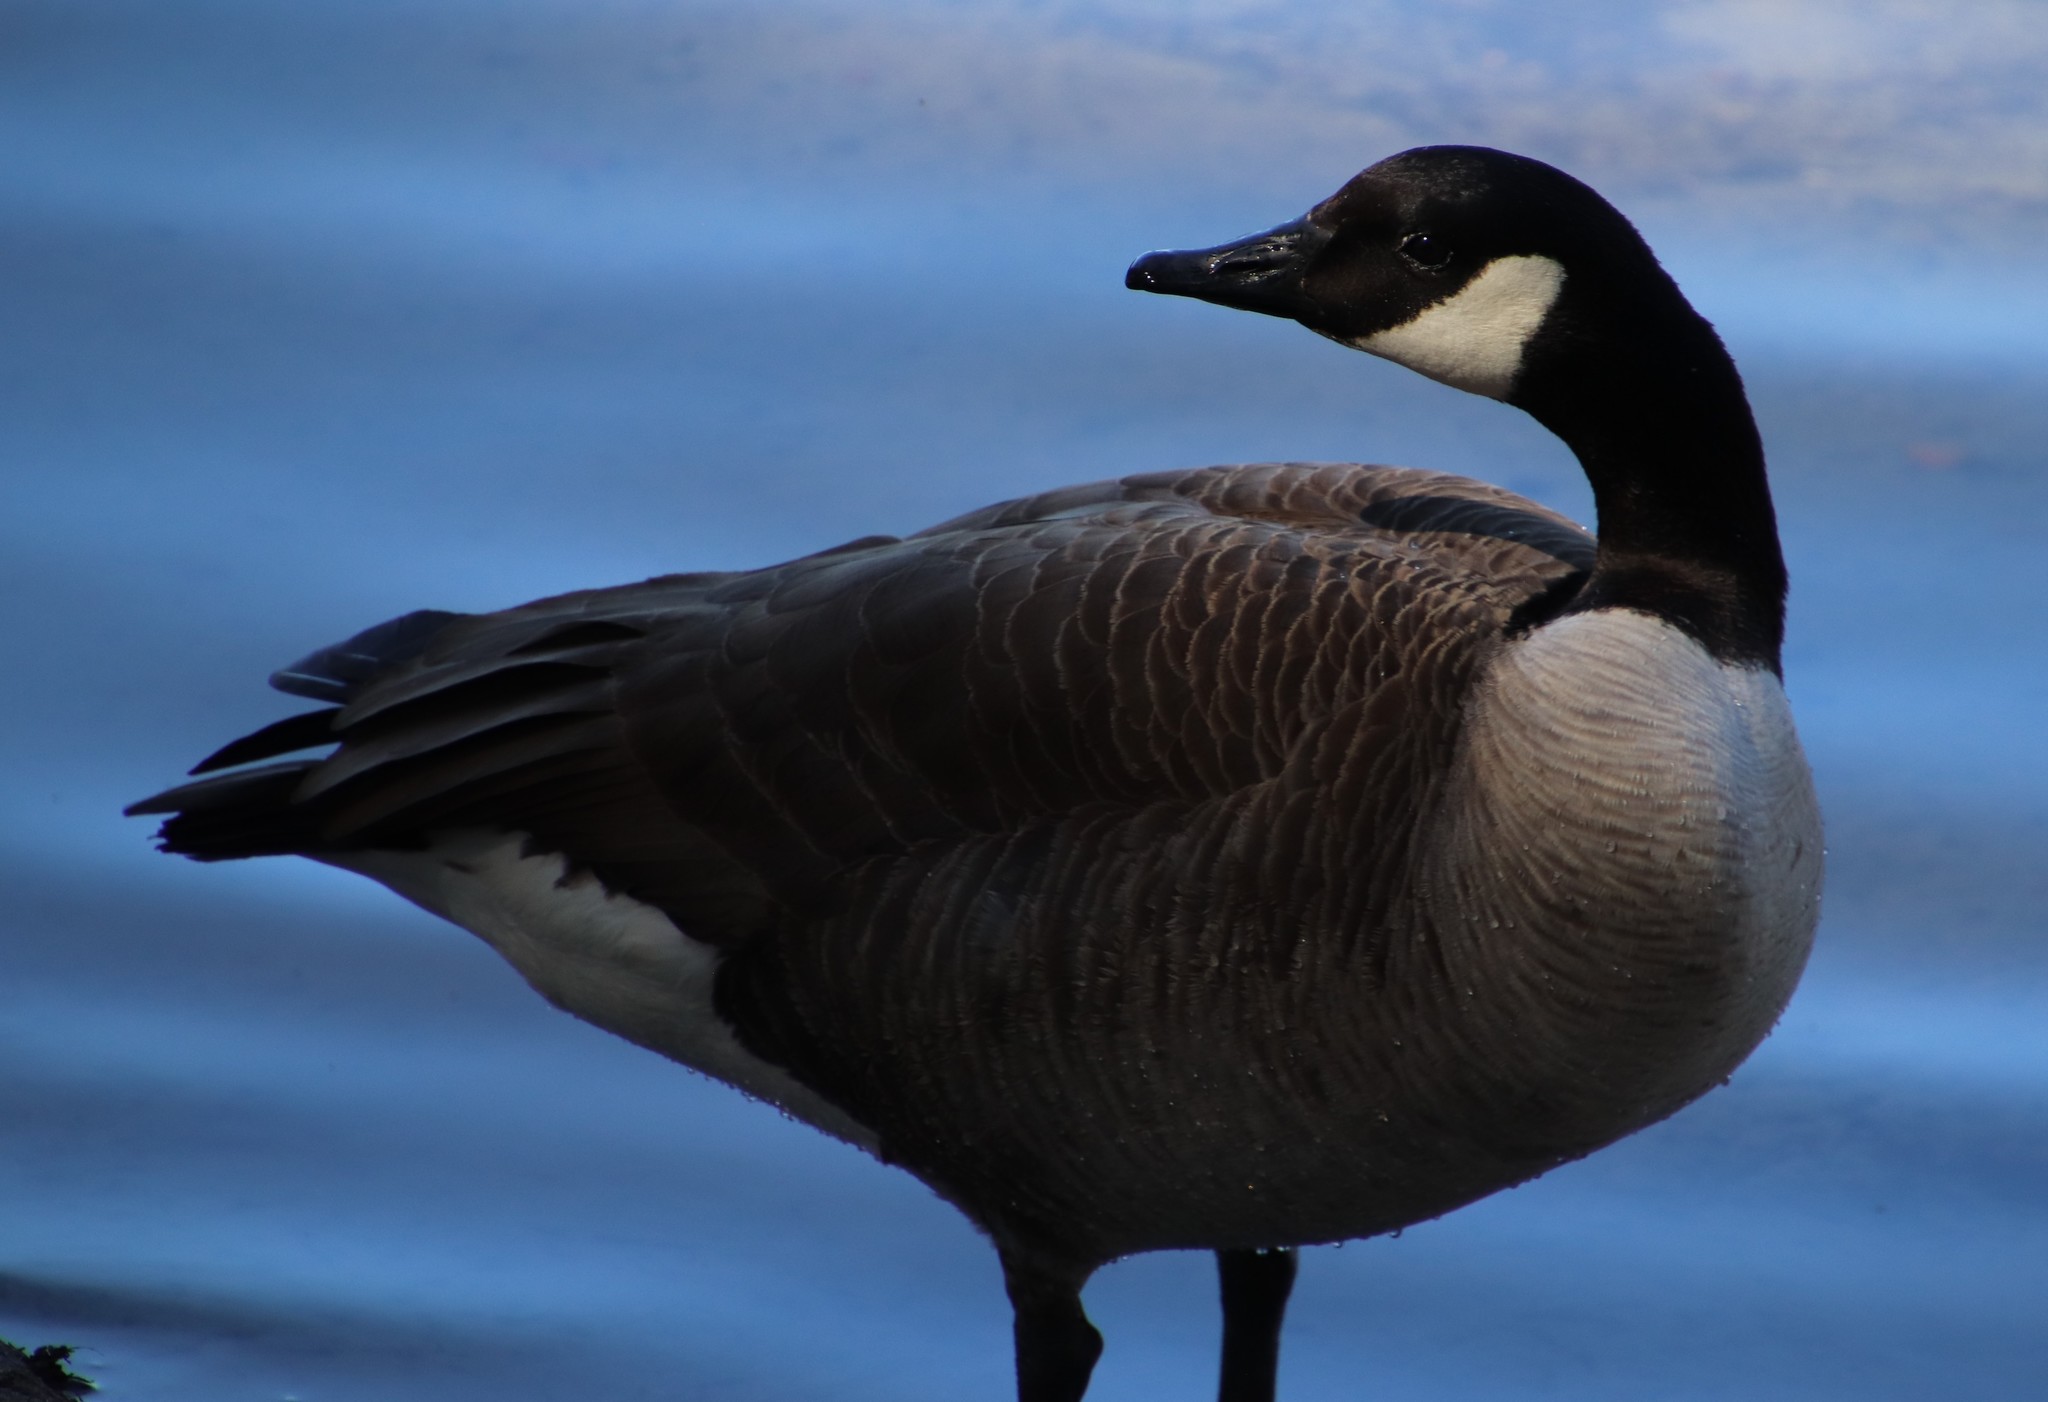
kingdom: Animalia
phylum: Chordata
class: Aves
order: Anseriformes
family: Anatidae
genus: Branta
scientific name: Branta canadensis
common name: Canada goose
